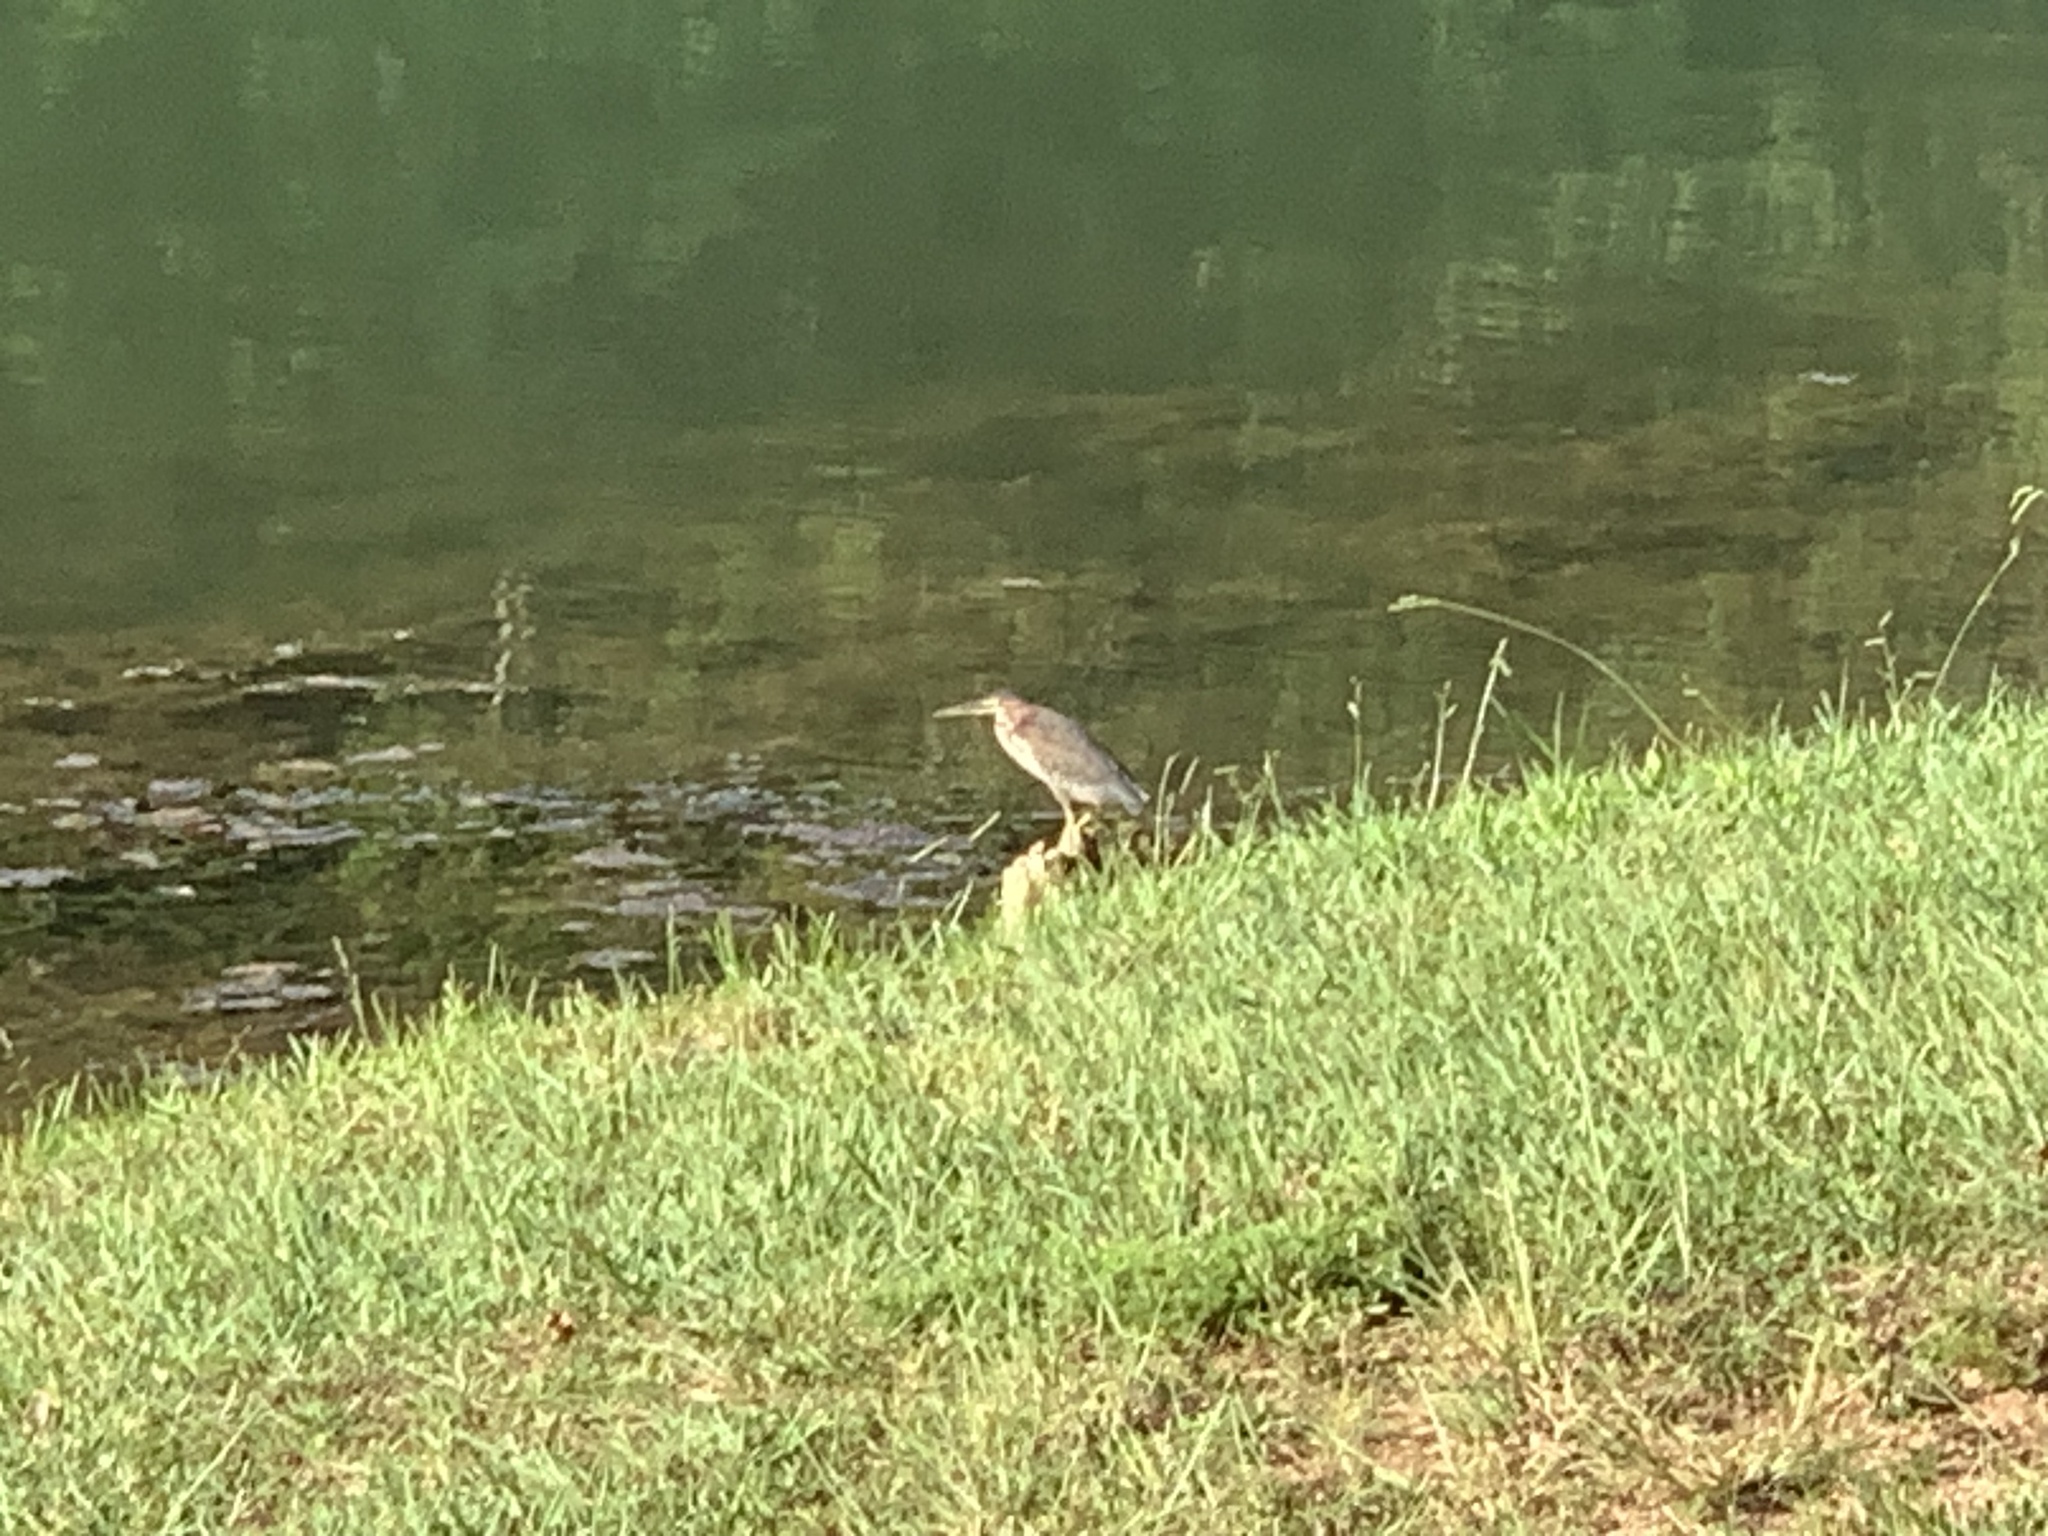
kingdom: Animalia
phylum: Chordata
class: Aves
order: Pelecaniformes
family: Ardeidae
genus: Butorides
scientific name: Butorides virescens
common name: Green heron
